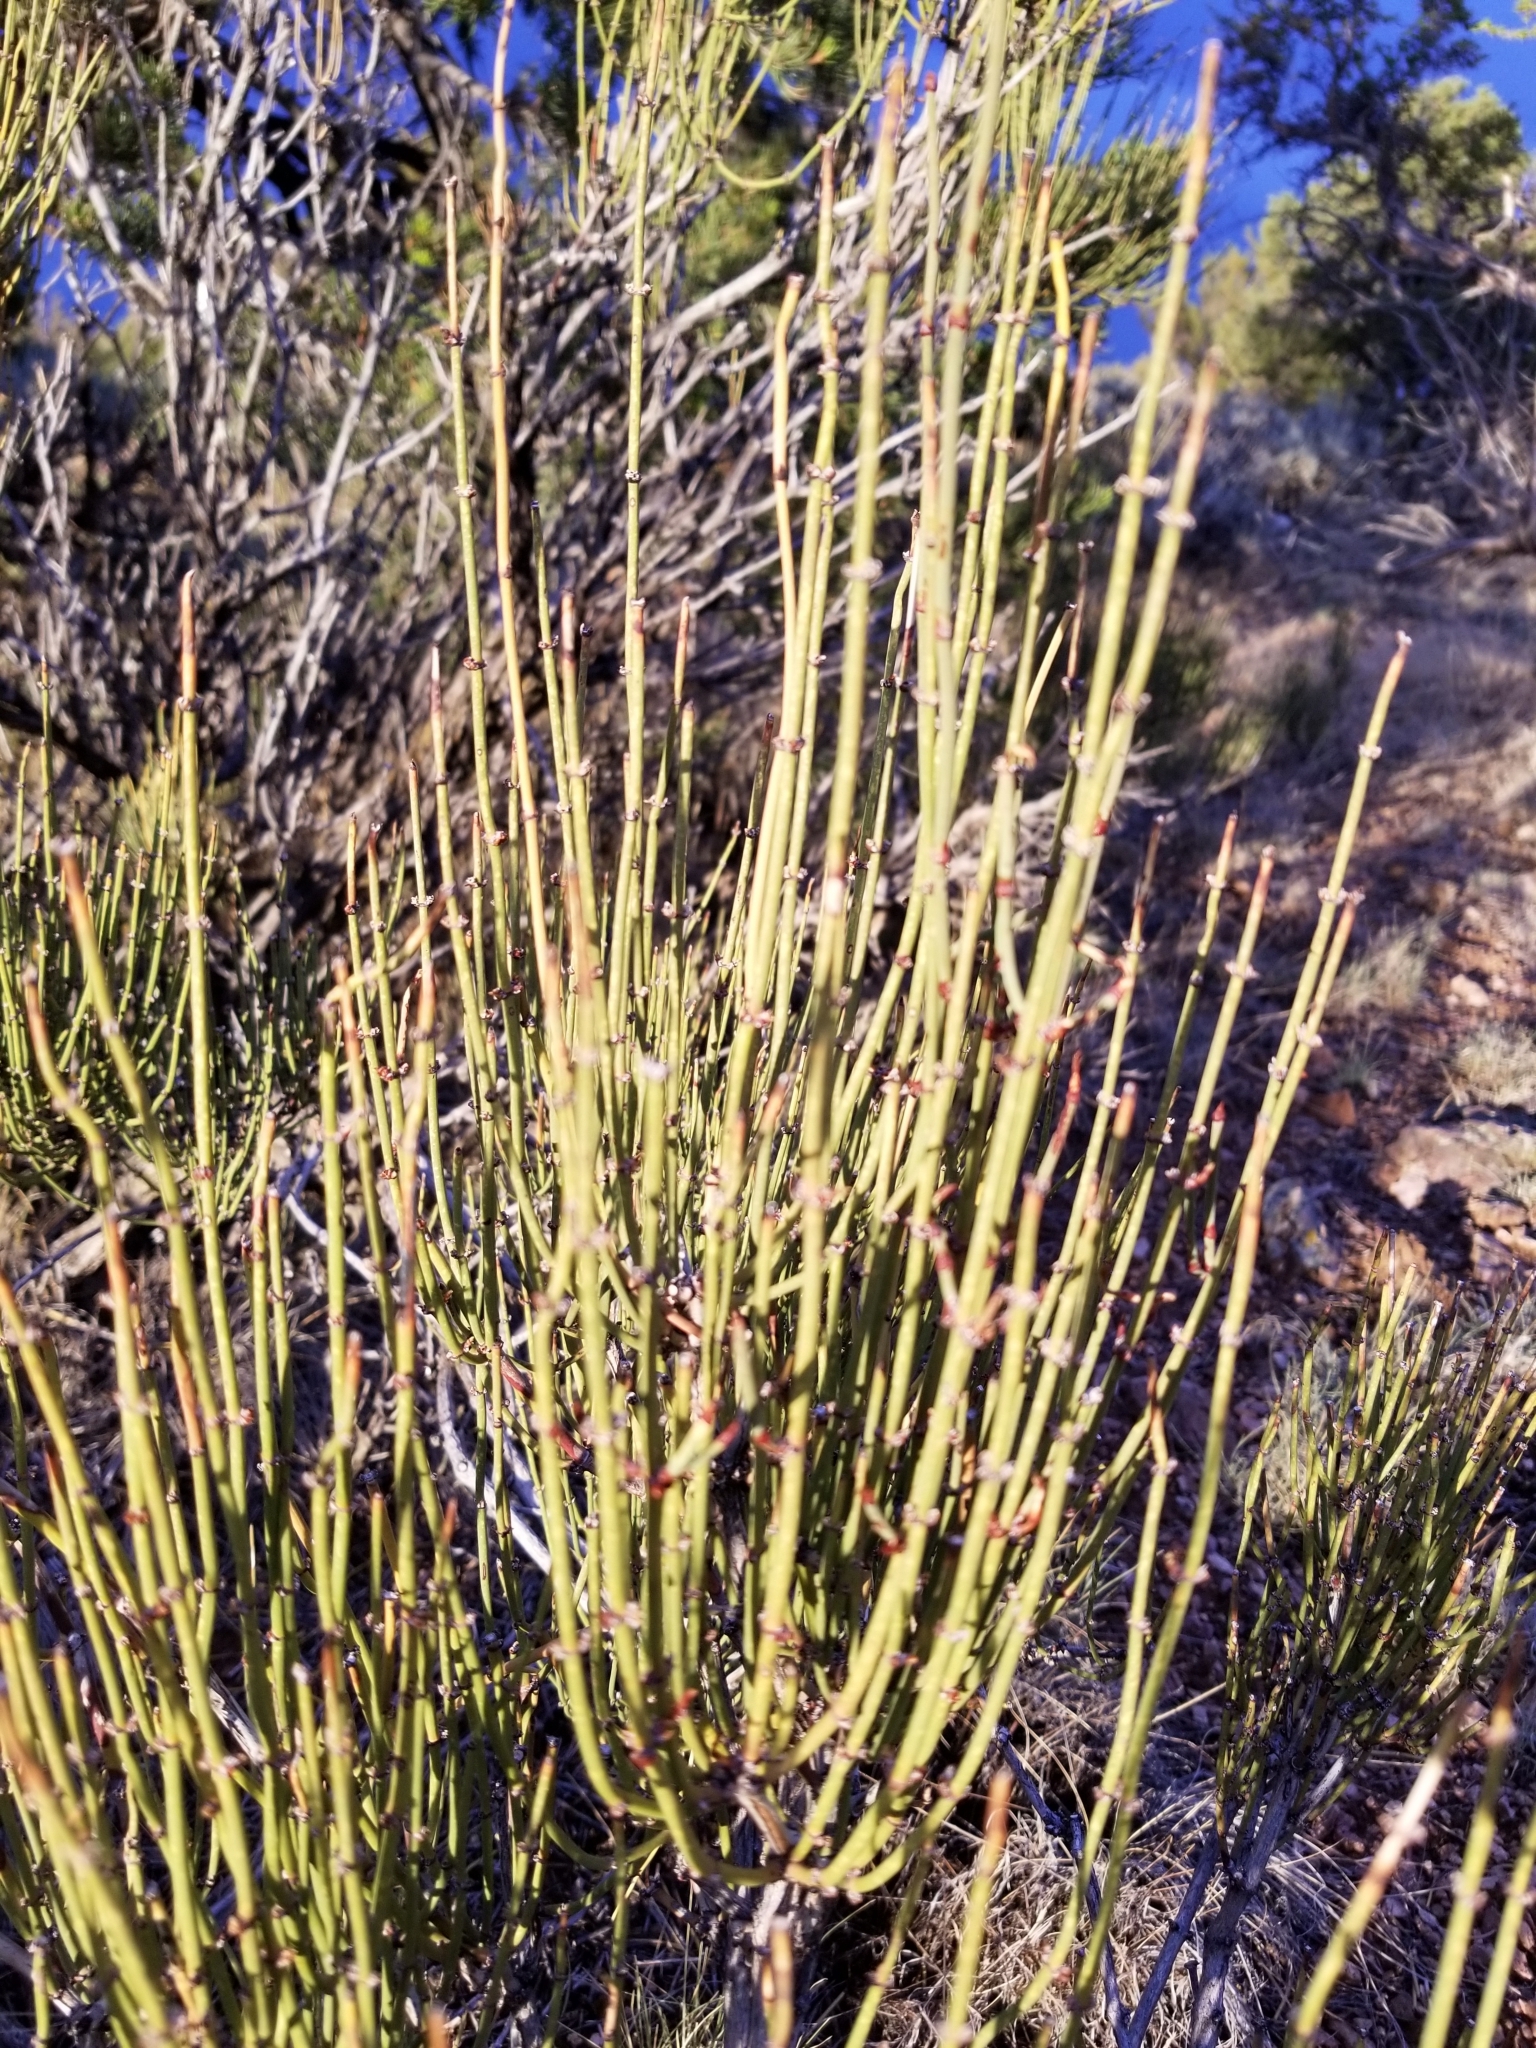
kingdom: Plantae
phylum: Tracheophyta
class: Gnetopsida
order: Ephedrales
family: Ephedraceae
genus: Ephedra
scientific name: Ephedra aspera
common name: Boundary ephedra
